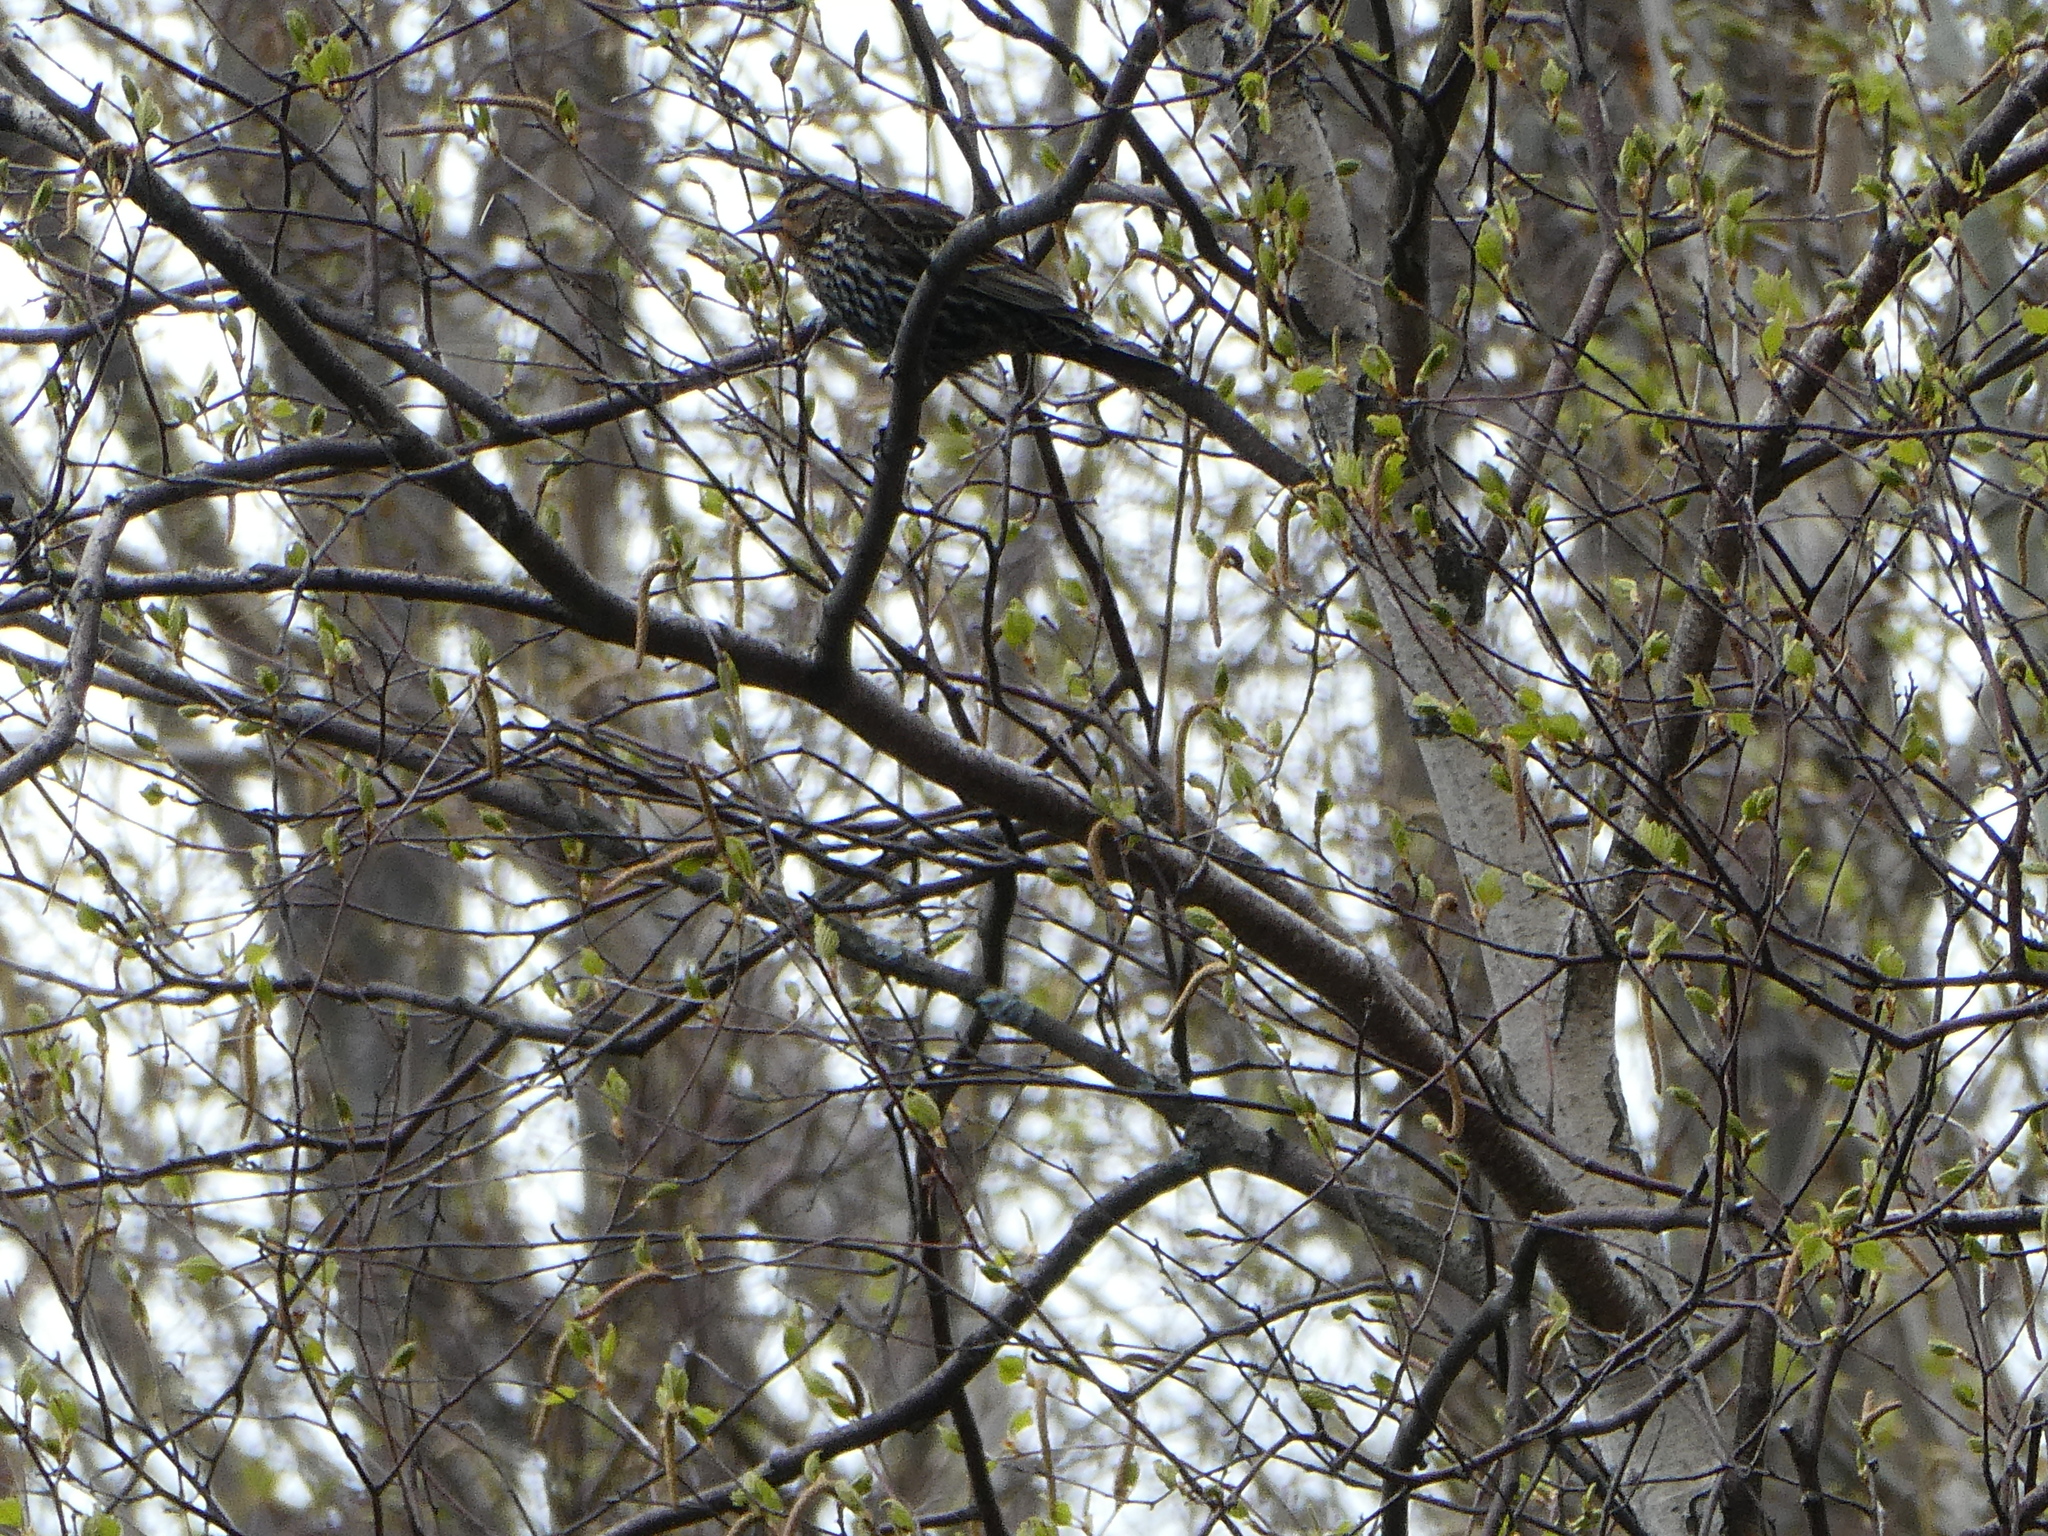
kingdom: Animalia
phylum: Chordata
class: Aves
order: Passeriformes
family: Icteridae
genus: Agelaius
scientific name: Agelaius phoeniceus
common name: Red-winged blackbird
